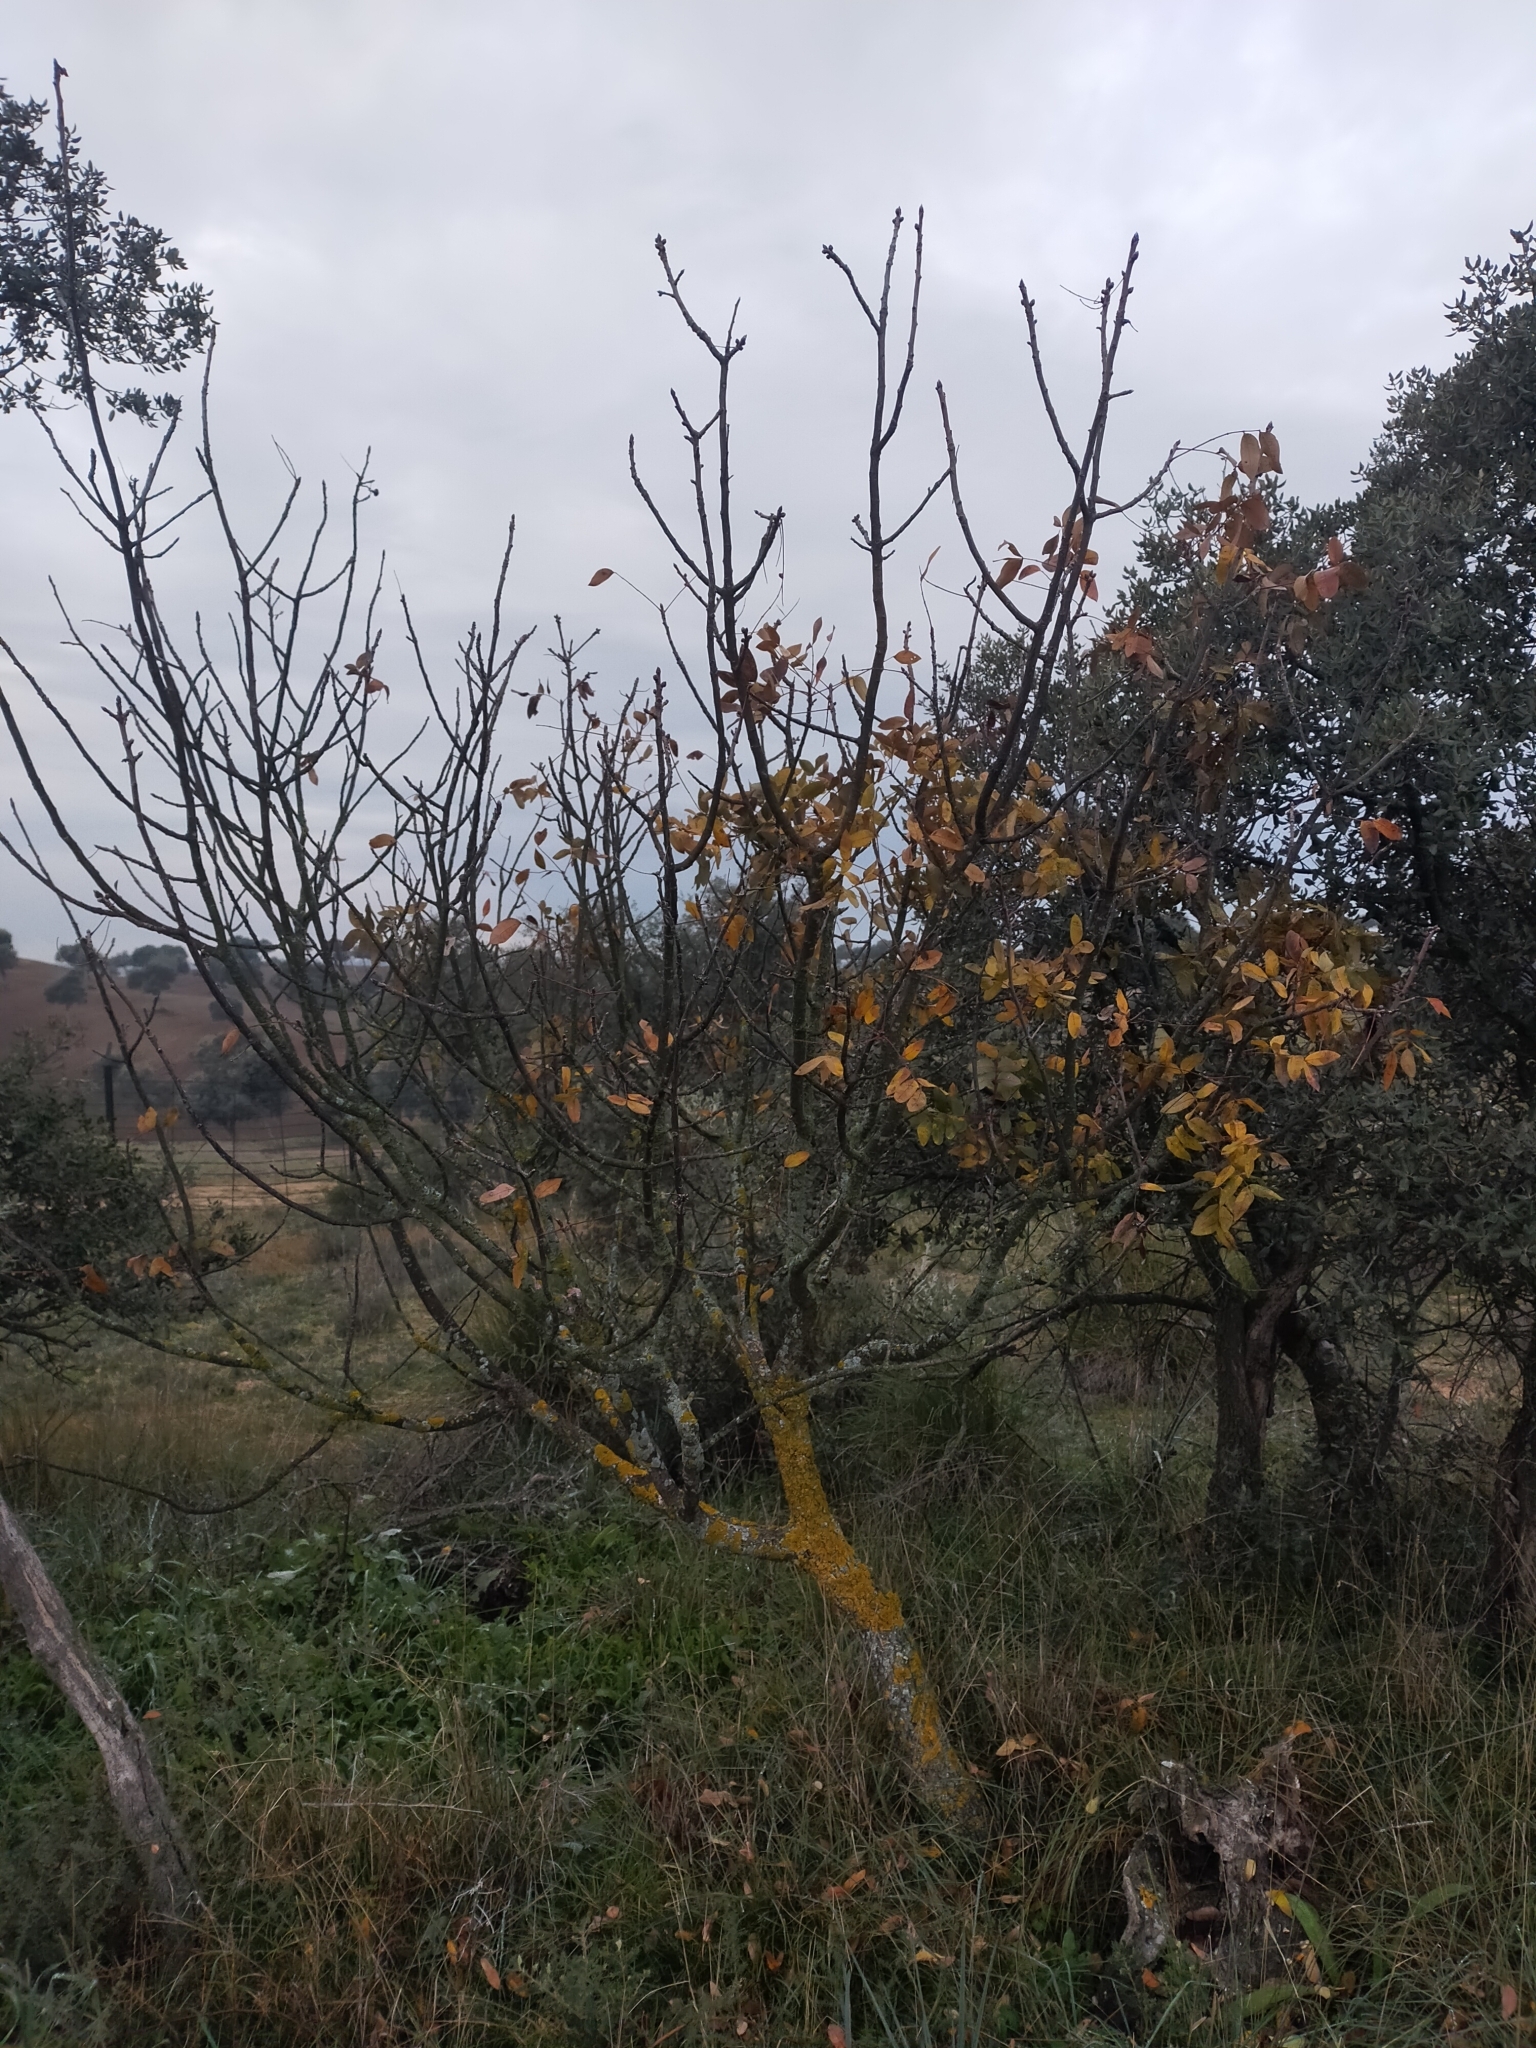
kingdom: Plantae
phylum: Tracheophyta
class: Magnoliopsida
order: Sapindales
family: Anacardiaceae
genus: Pistacia
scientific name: Pistacia terebinthus
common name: Terebinth
